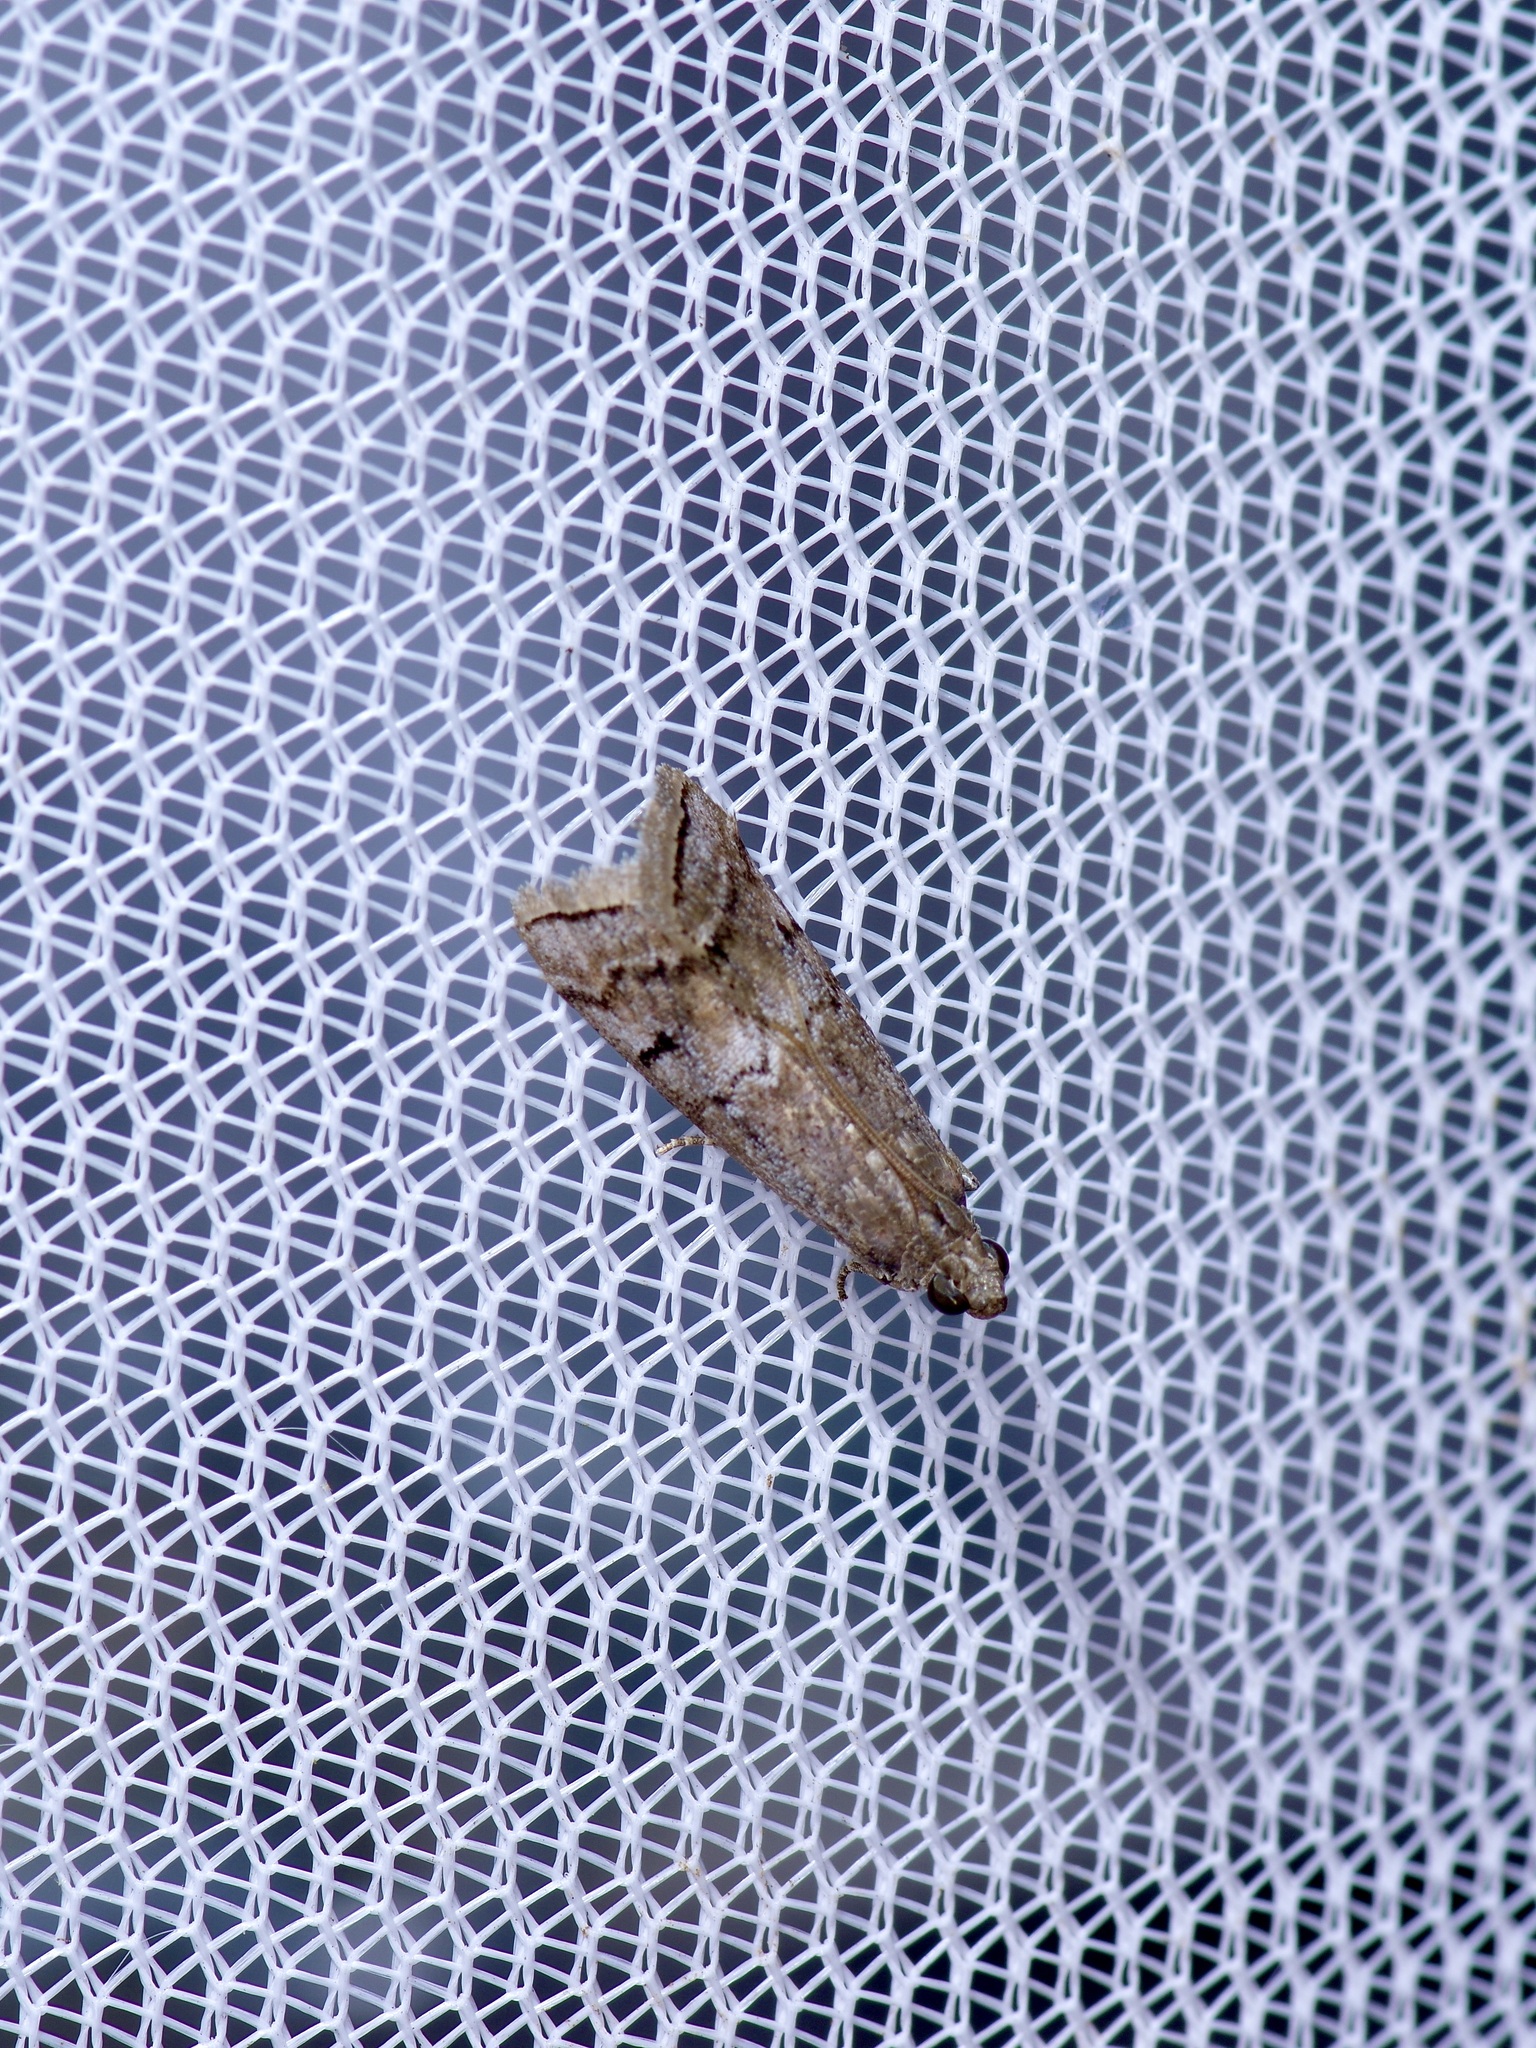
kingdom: Animalia
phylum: Arthropoda
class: Insecta
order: Lepidoptera
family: Pyralidae
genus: Ancylosis
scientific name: Ancylosis Canarsia ulmiarrosorella
